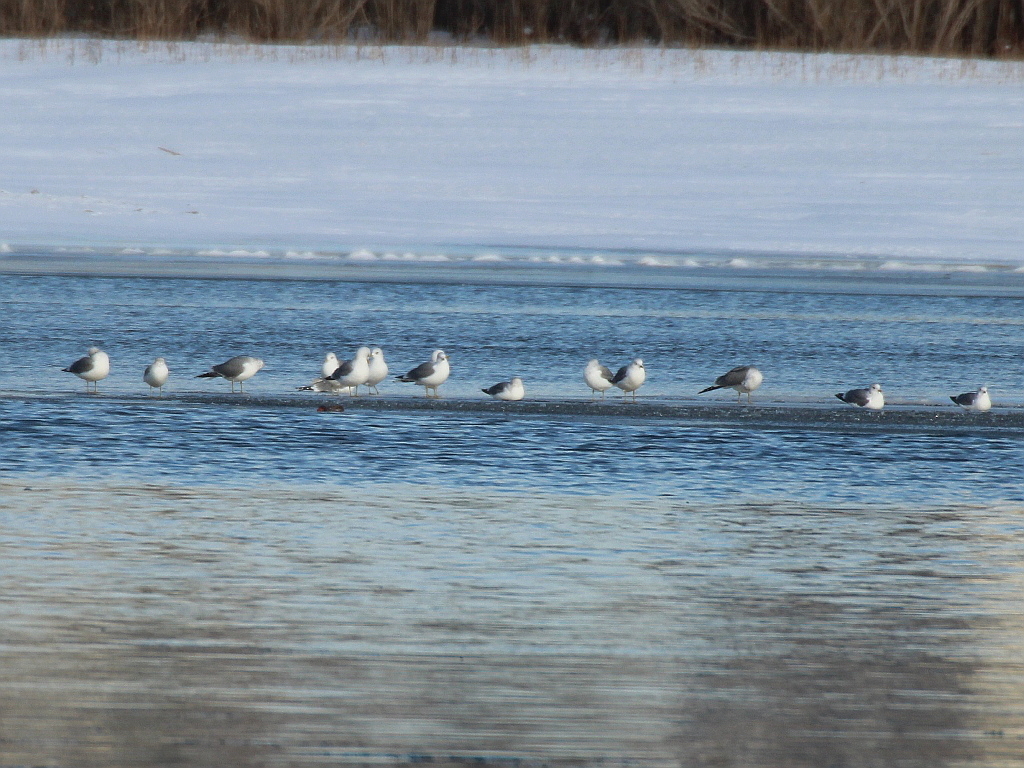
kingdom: Animalia
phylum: Chordata
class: Aves
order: Charadriiformes
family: Laridae
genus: Larus
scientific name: Larus canus
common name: Mew gull
